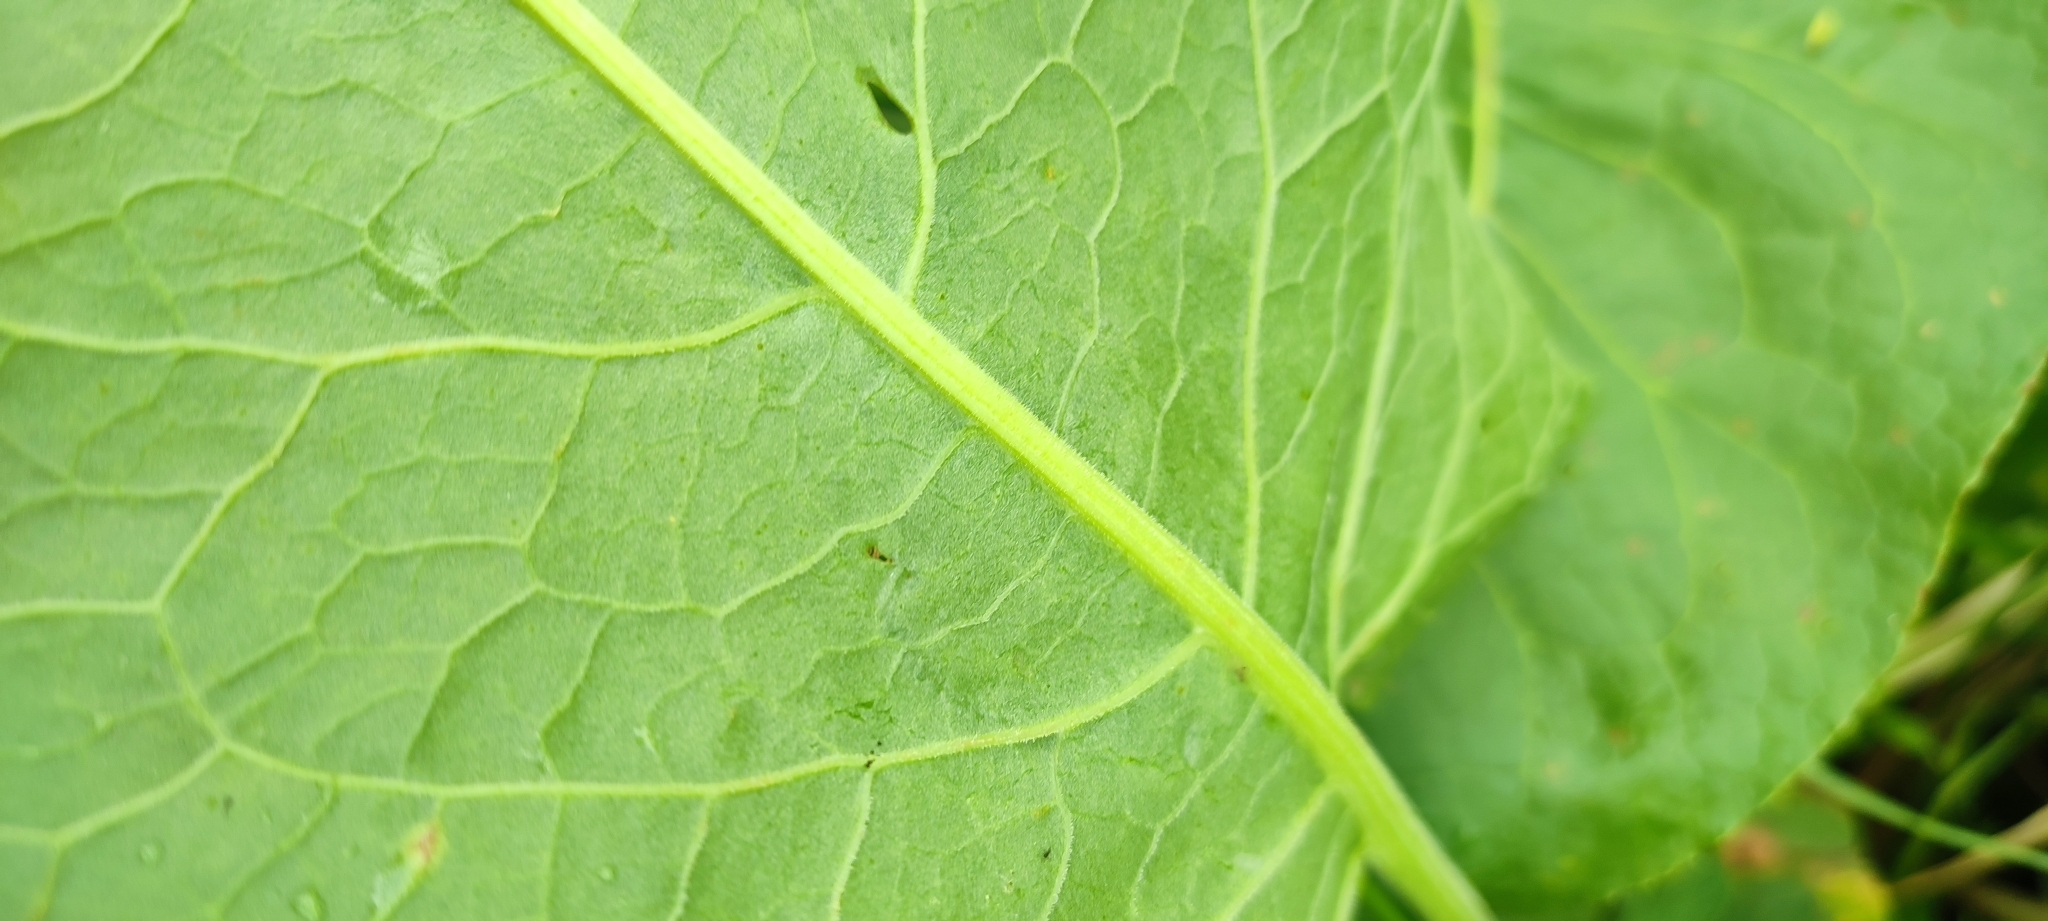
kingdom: Plantae
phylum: Tracheophyta
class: Magnoliopsida
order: Caryophyllales
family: Polygonaceae
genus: Rumex
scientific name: Rumex confertus
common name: Russian dock
